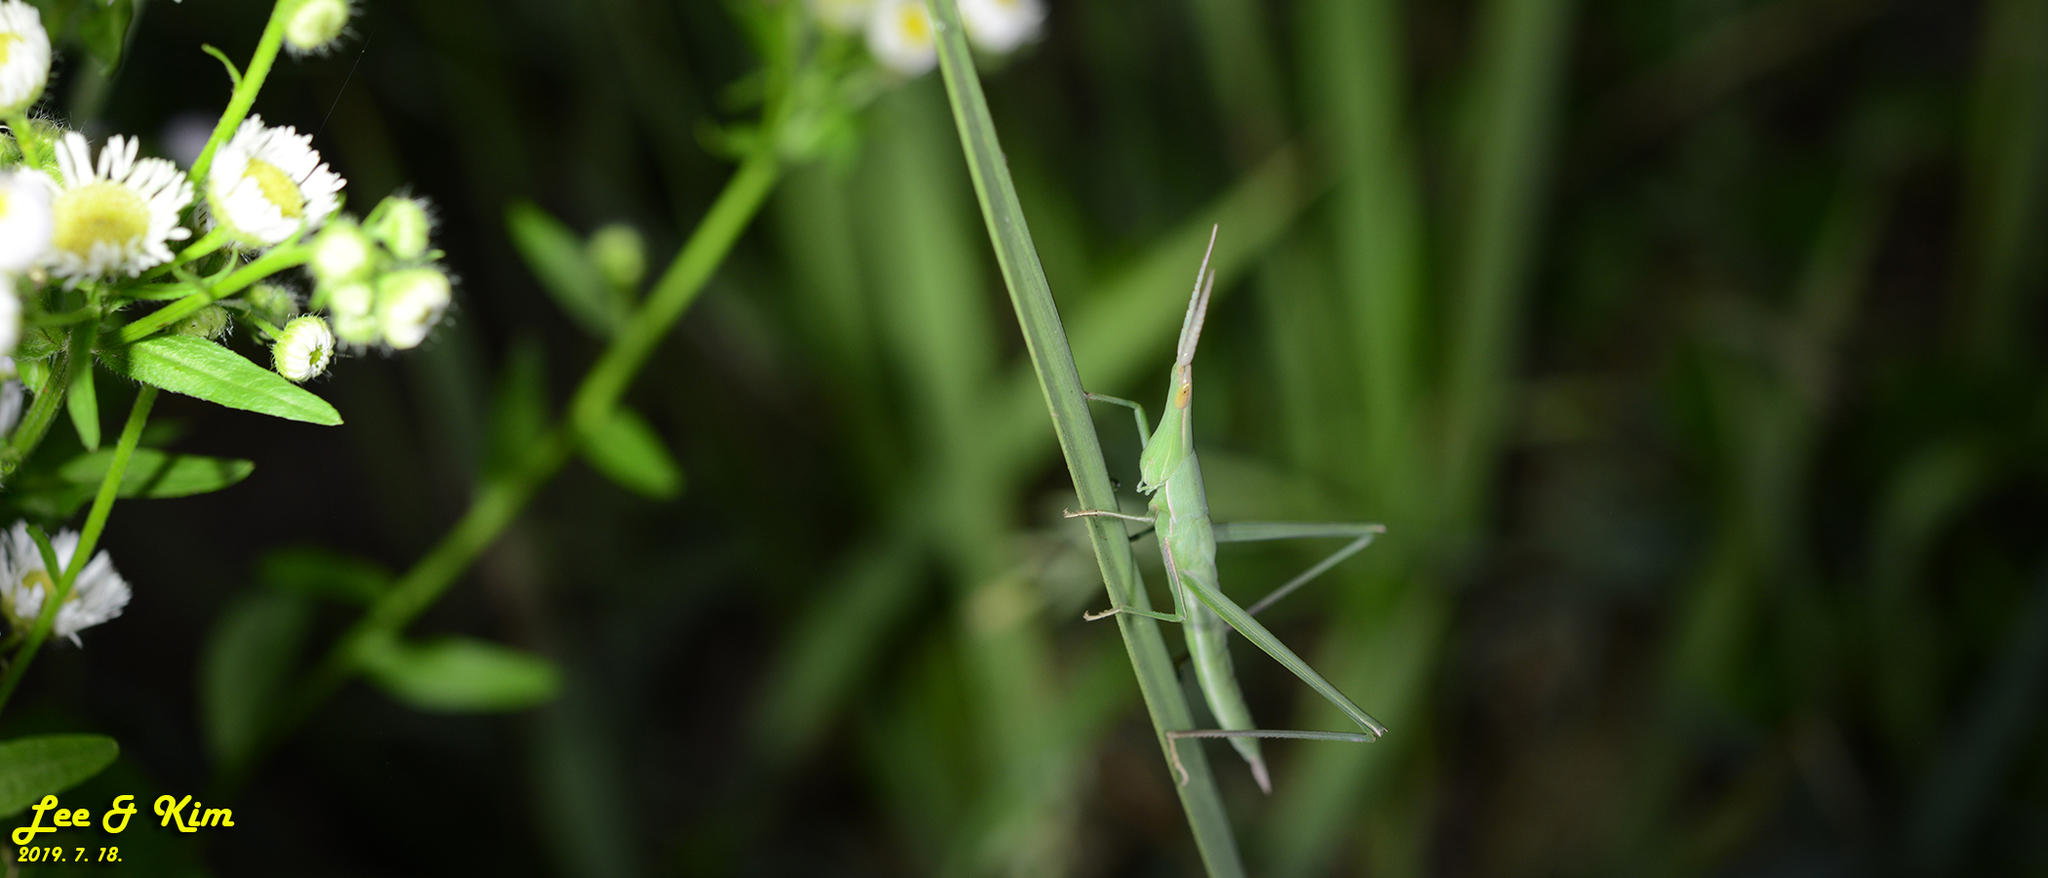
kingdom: Animalia
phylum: Arthropoda
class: Insecta
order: Orthoptera
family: Acrididae
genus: Acrida
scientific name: Acrida cinerea
